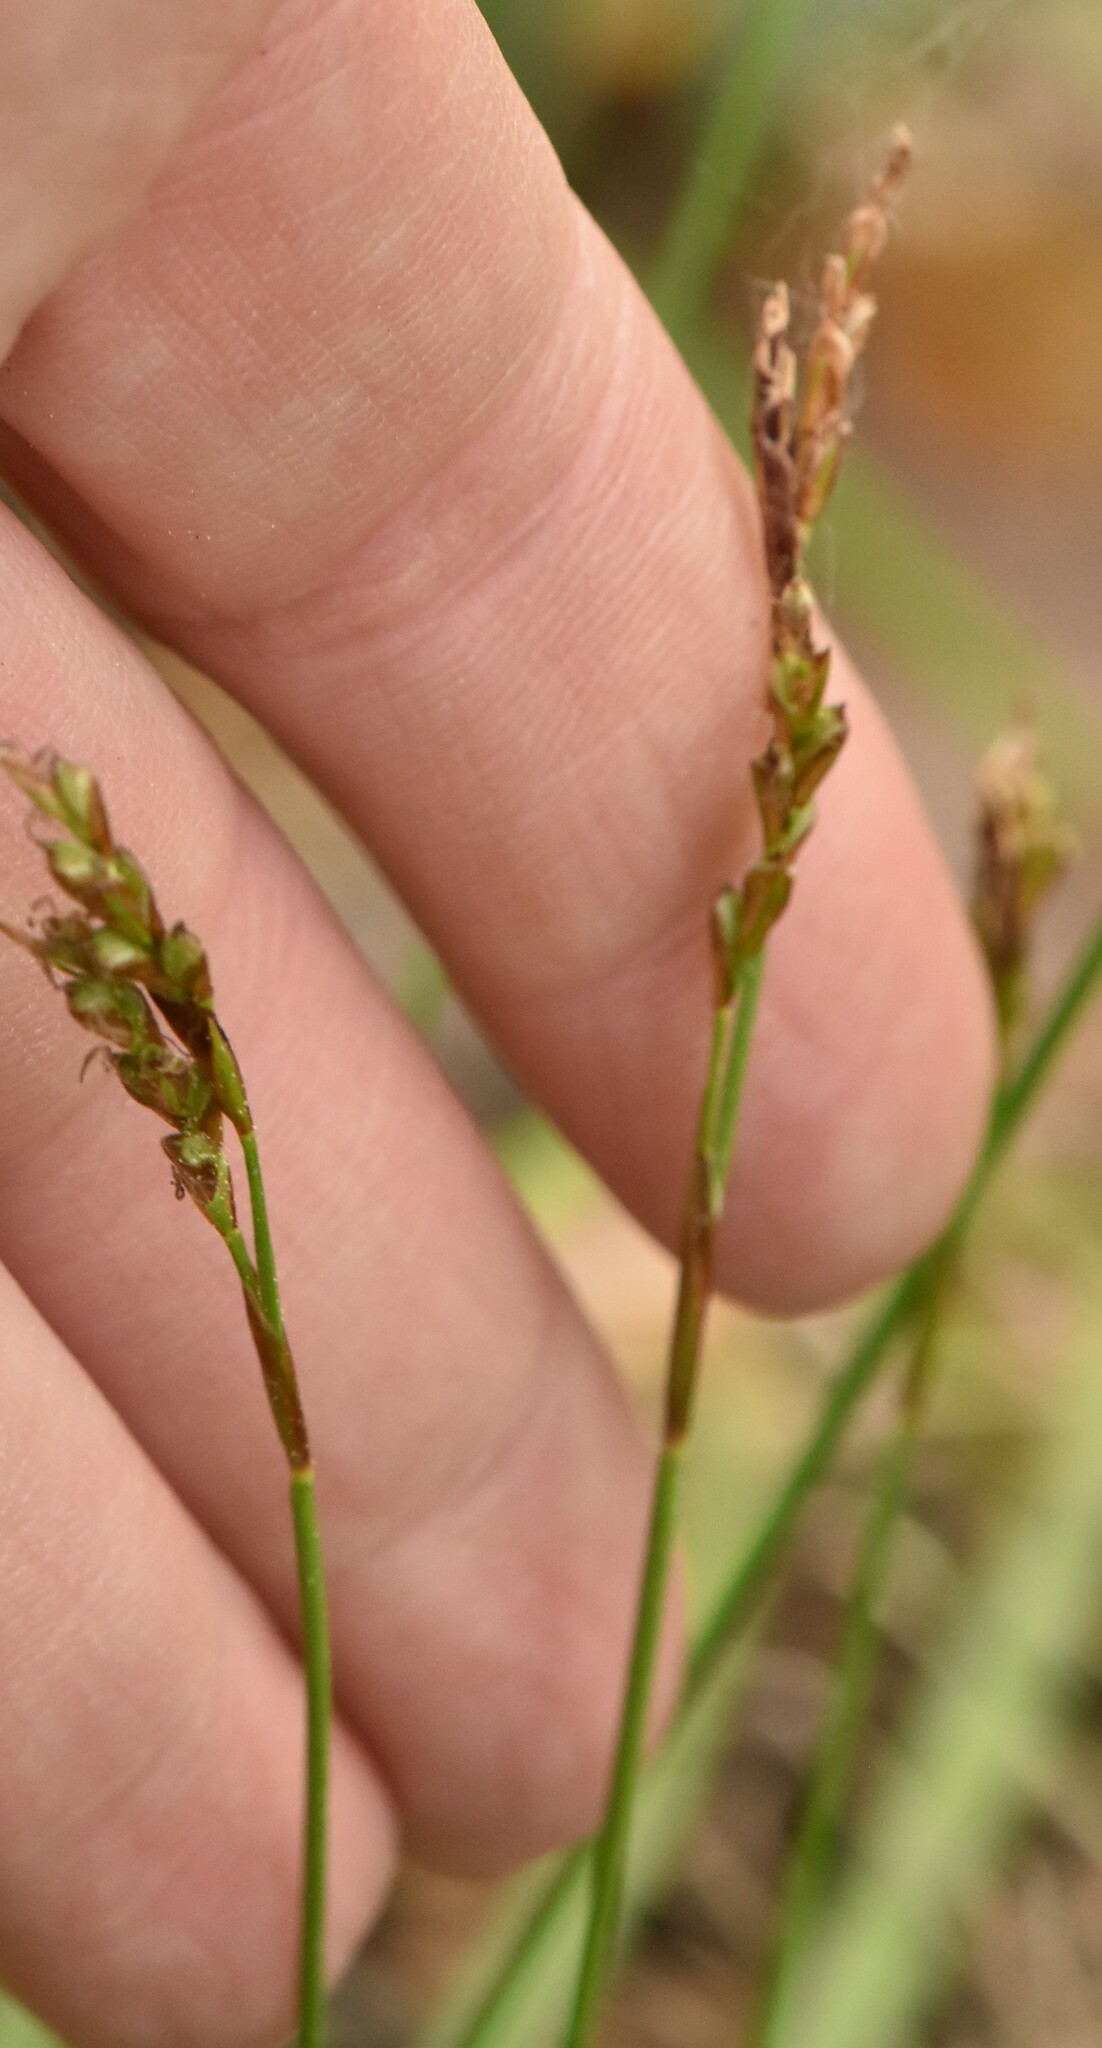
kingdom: Plantae
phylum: Tracheophyta
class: Liliopsida
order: Poales
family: Cyperaceae
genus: Carex
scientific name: Carex digitata
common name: Fingered sedge
